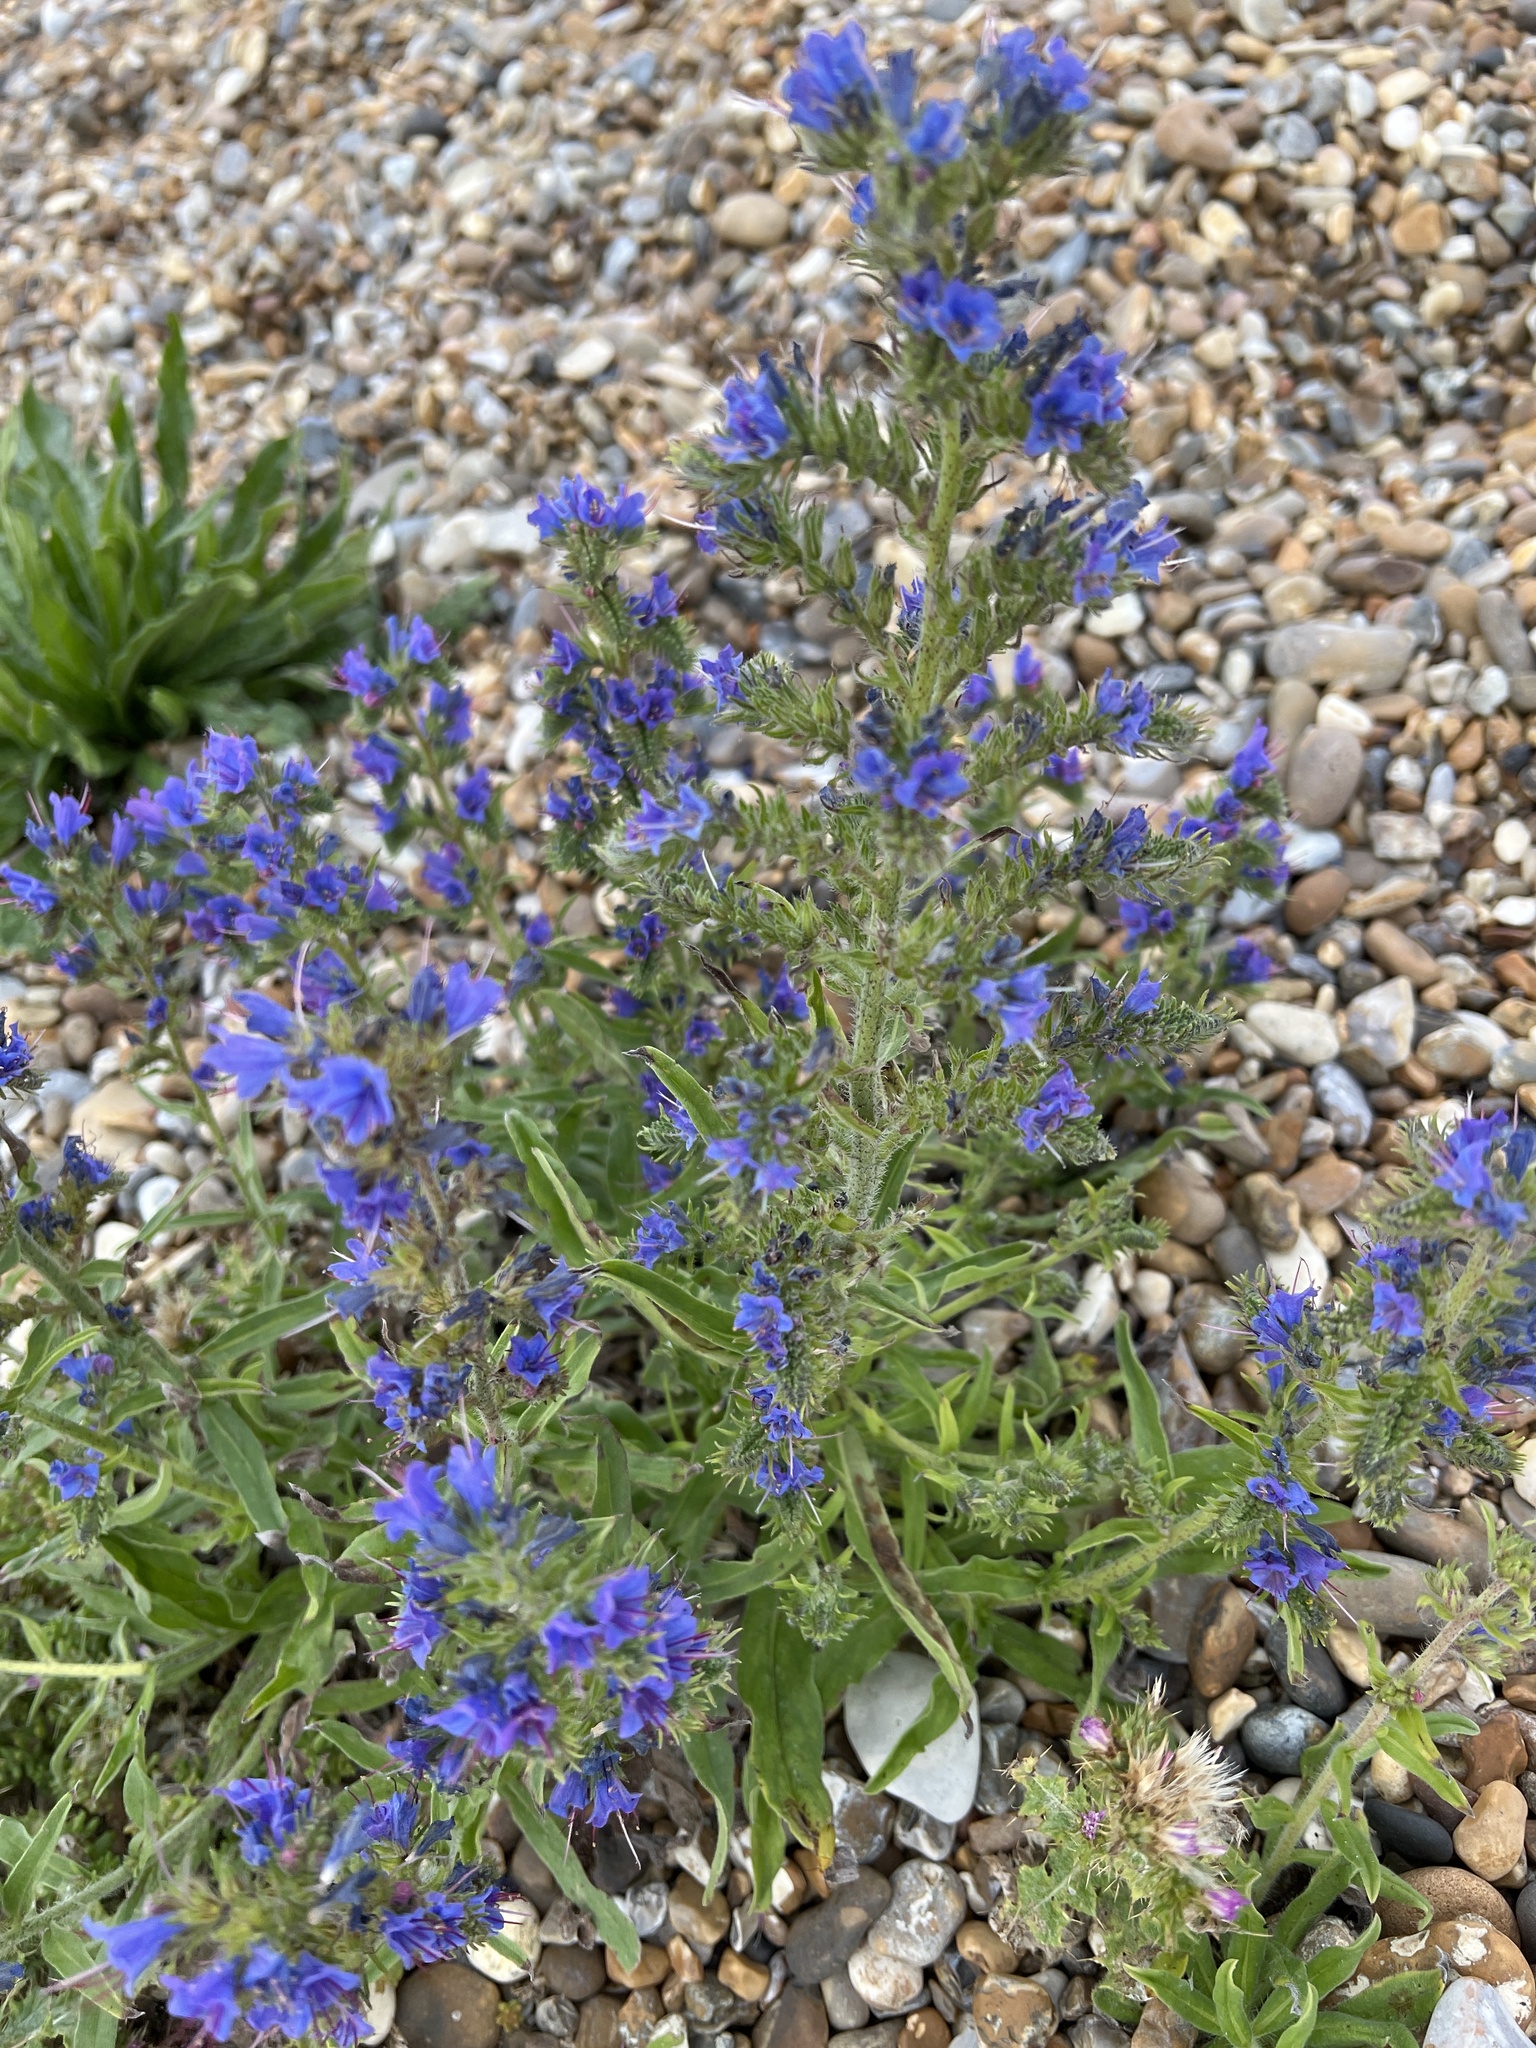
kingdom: Plantae
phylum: Tracheophyta
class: Magnoliopsida
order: Boraginales
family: Boraginaceae
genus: Echium
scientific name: Echium vulgare
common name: Common viper's bugloss
